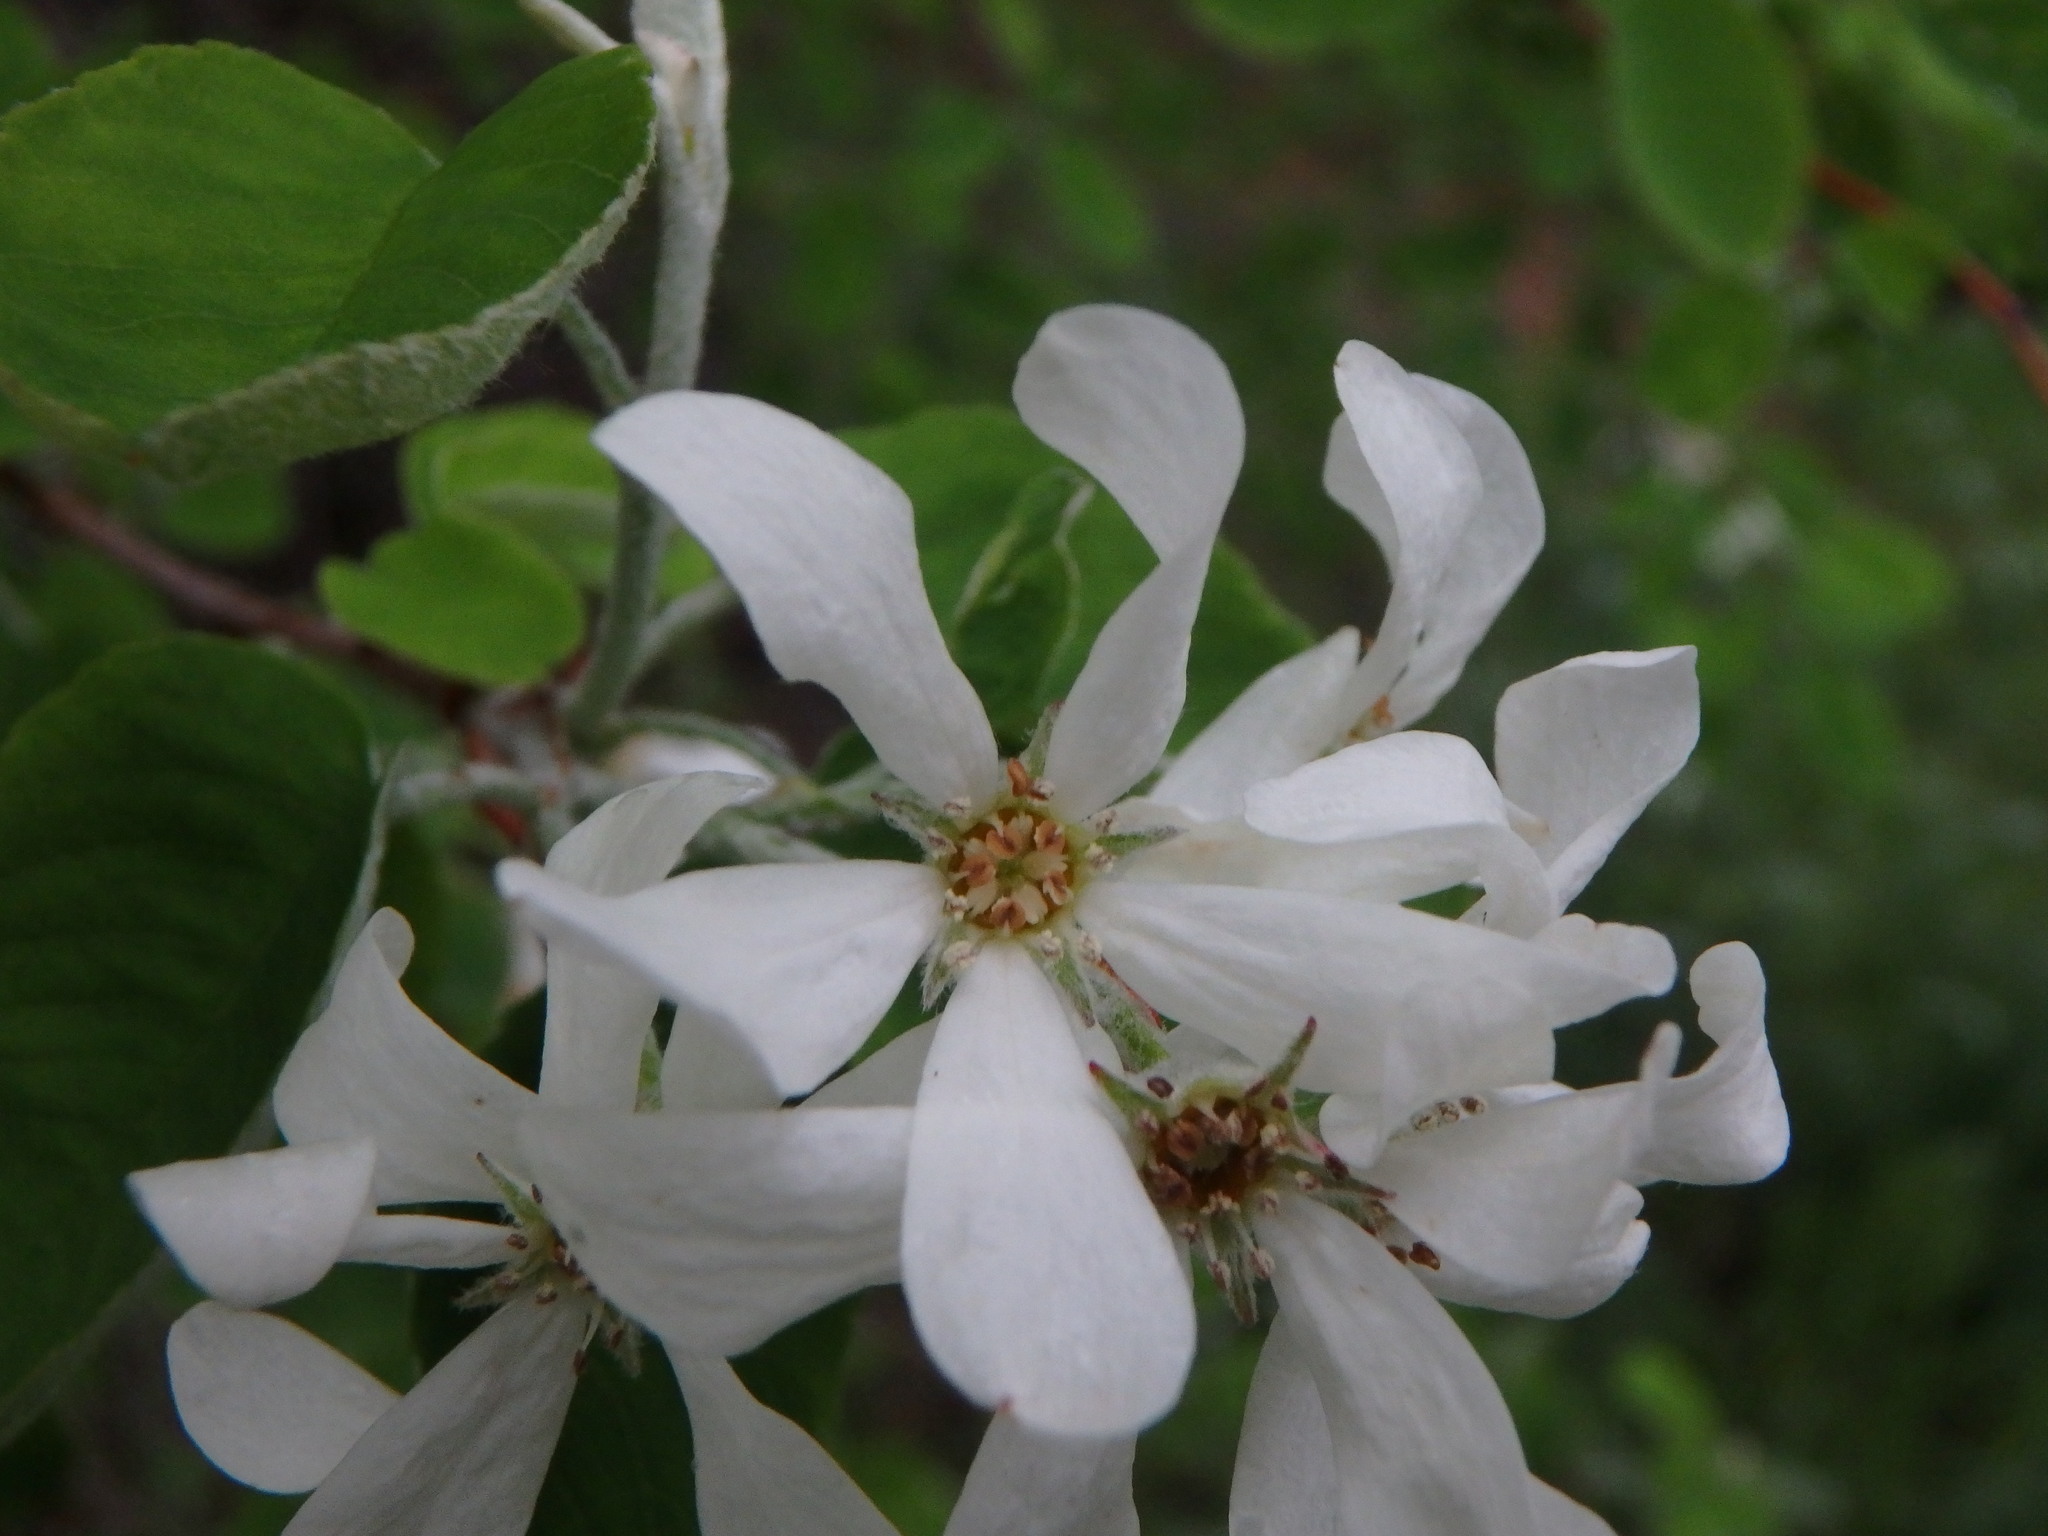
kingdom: Plantae
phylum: Tracheophyta
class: Magnoliopsida
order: Rosales
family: Rosaceae
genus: Amelanchier
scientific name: Amelanchier ovalis
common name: Serviceberry
